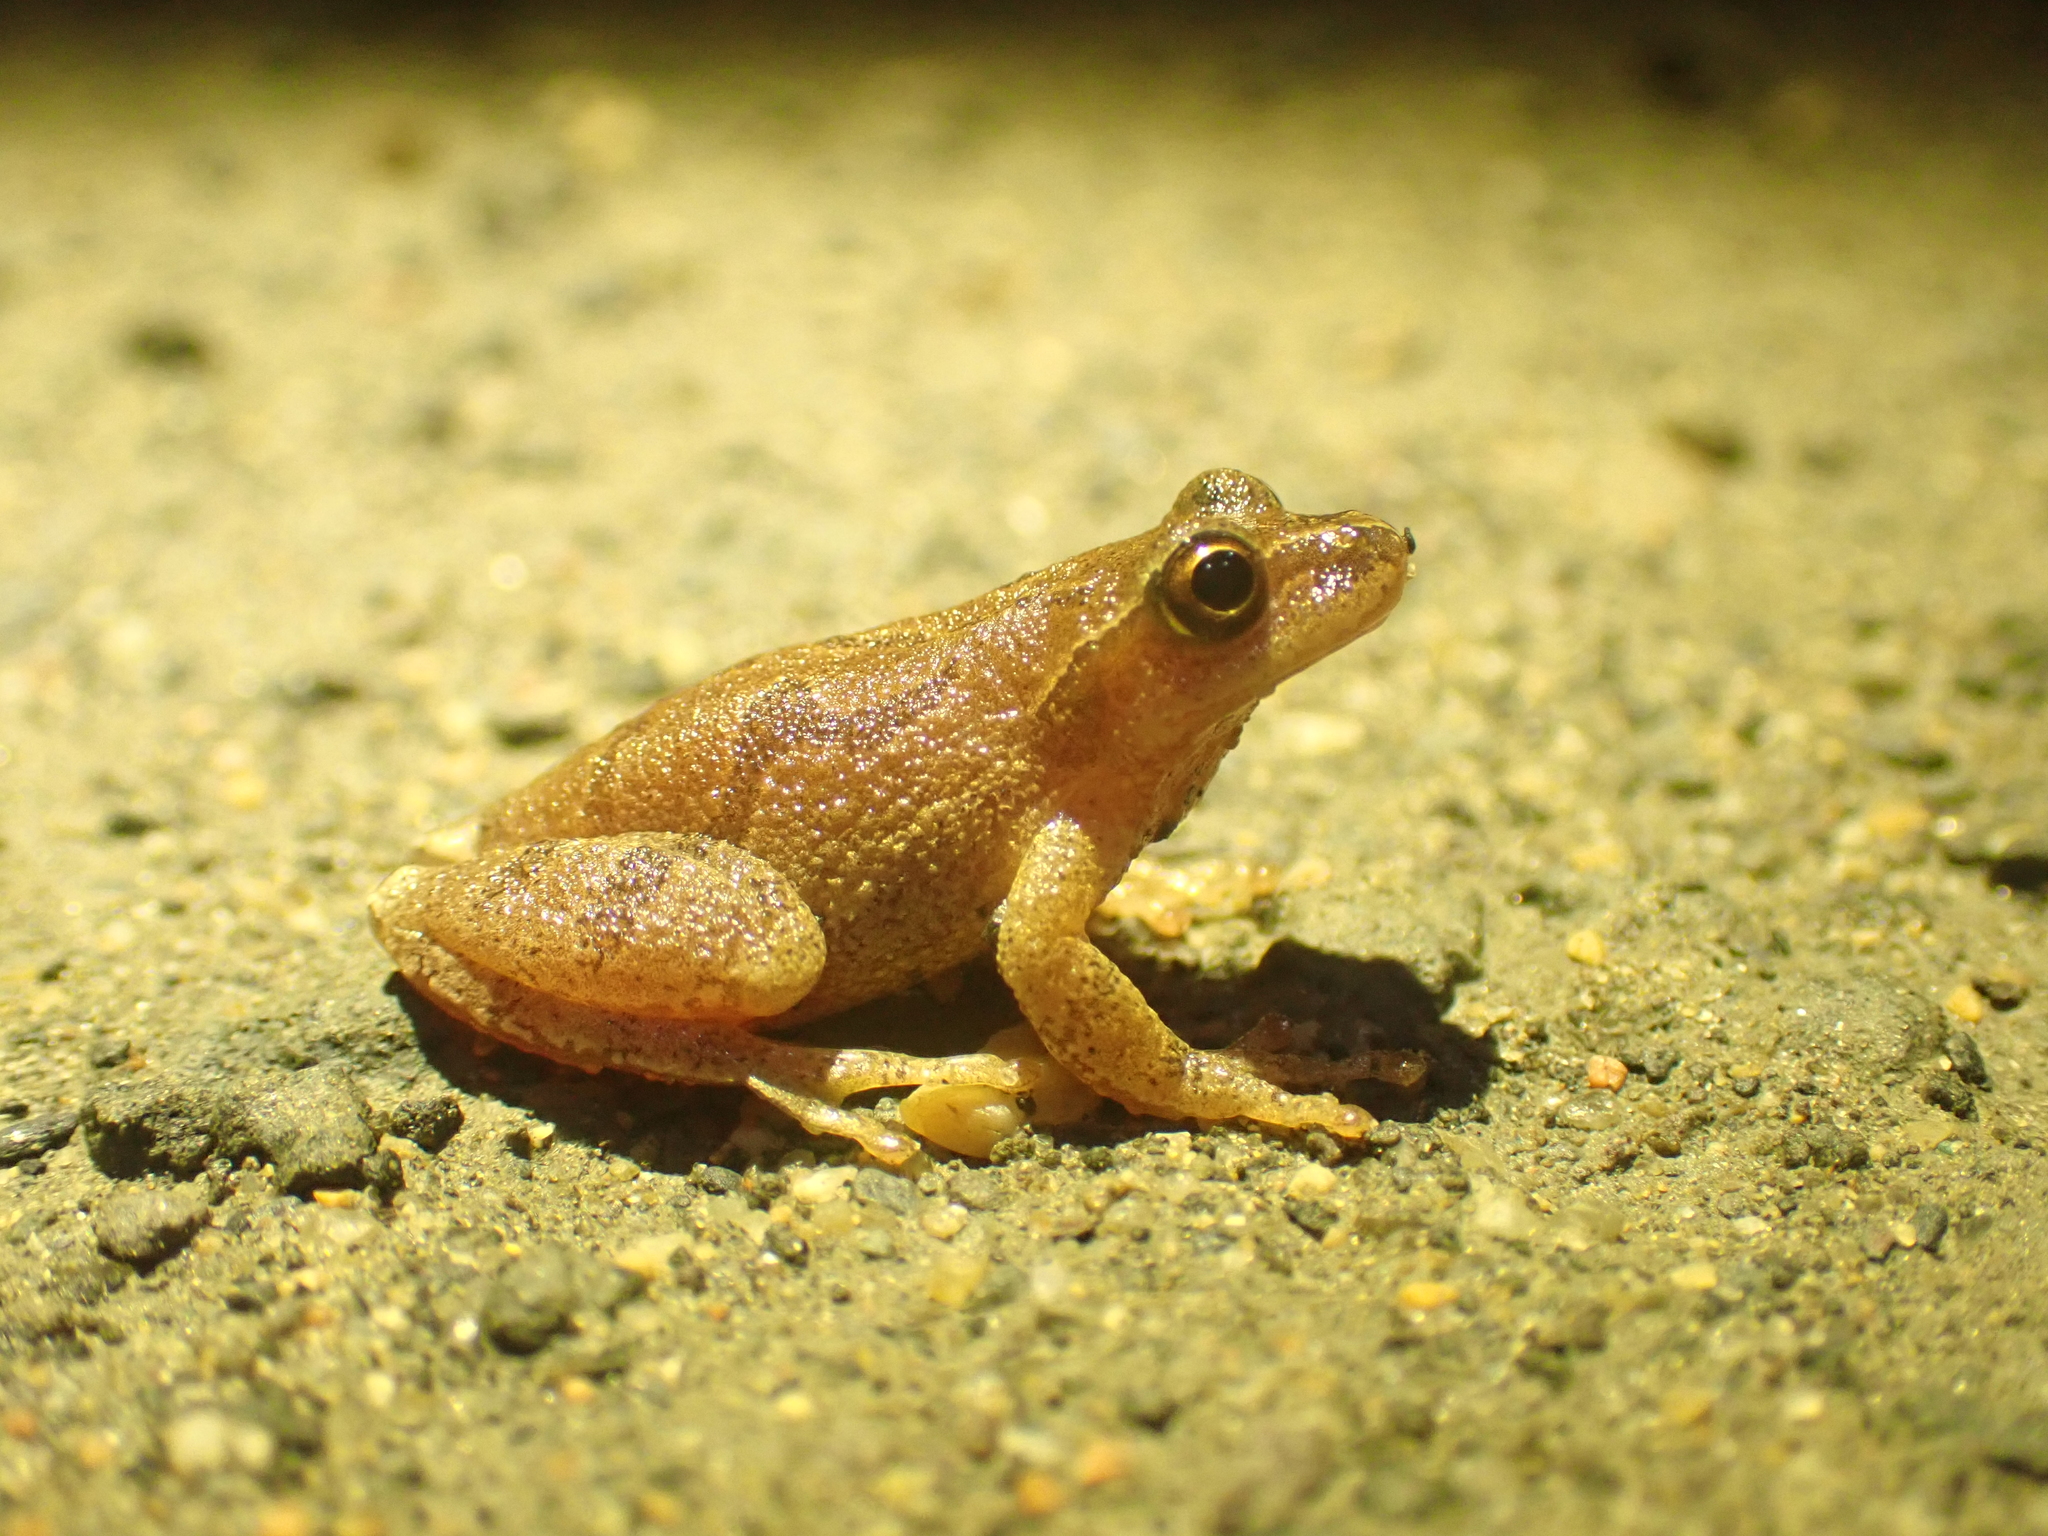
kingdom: Animalia
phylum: Chordata
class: Amphibia
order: Anura
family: Hylidae
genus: Pseudacris
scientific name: Pseudacris crucifer
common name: Spring peeper
